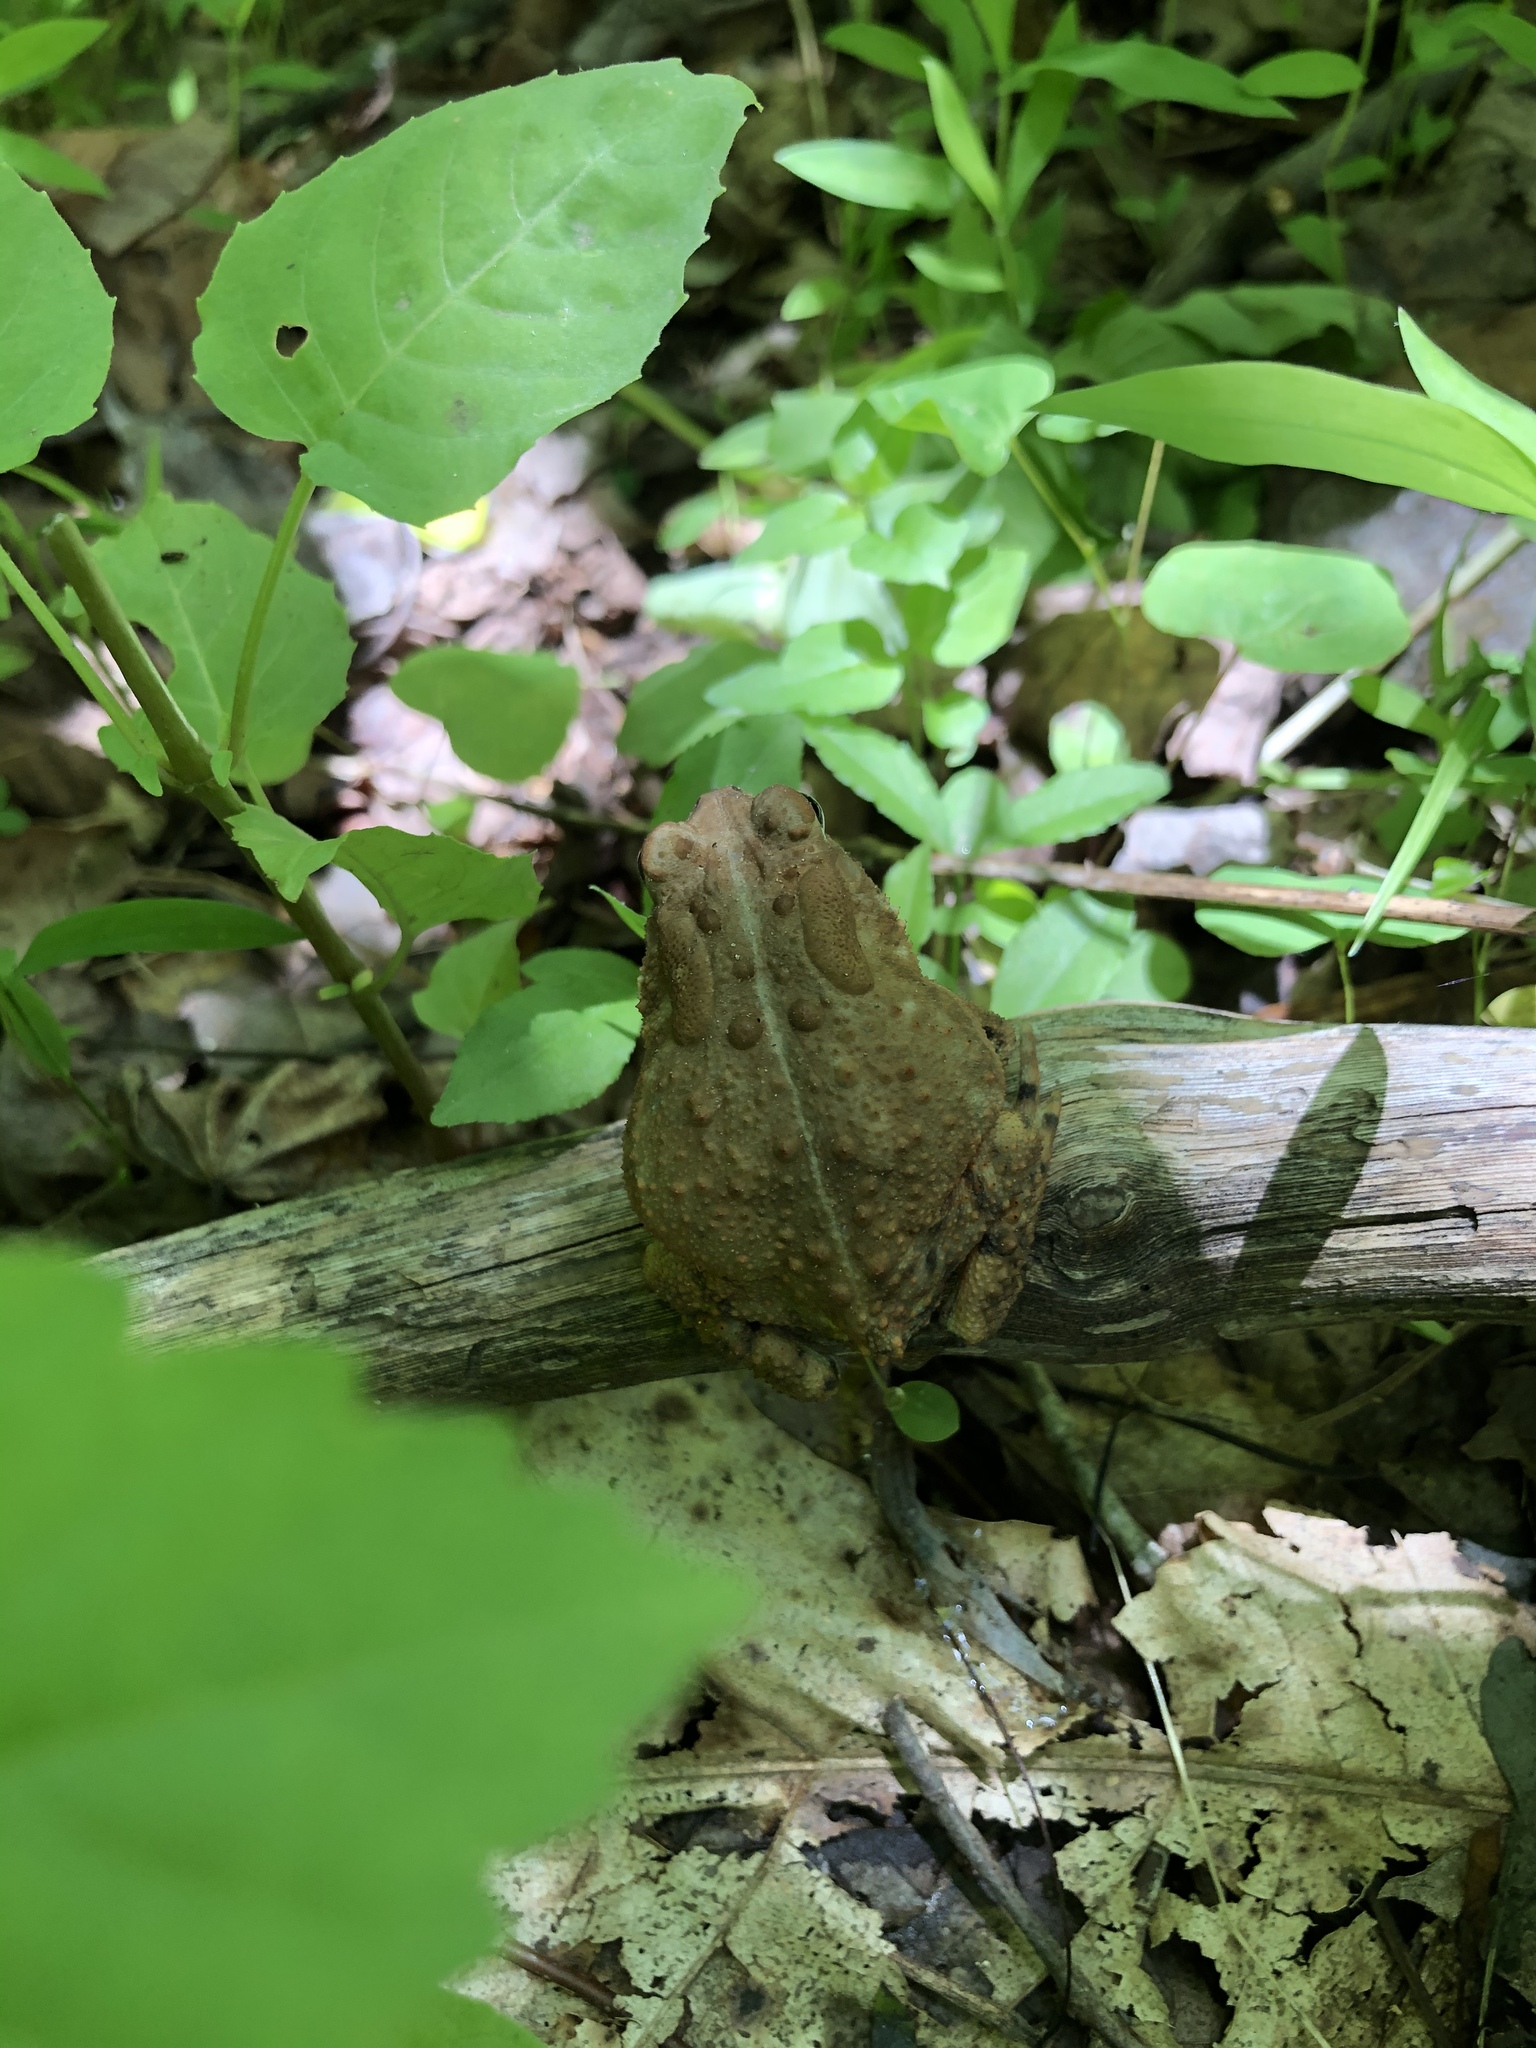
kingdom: Animalia
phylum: Chordata
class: Amphibia
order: Anura
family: Bufonidae
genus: Anaxyrus
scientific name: Anaxyrus americanus
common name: American toad
